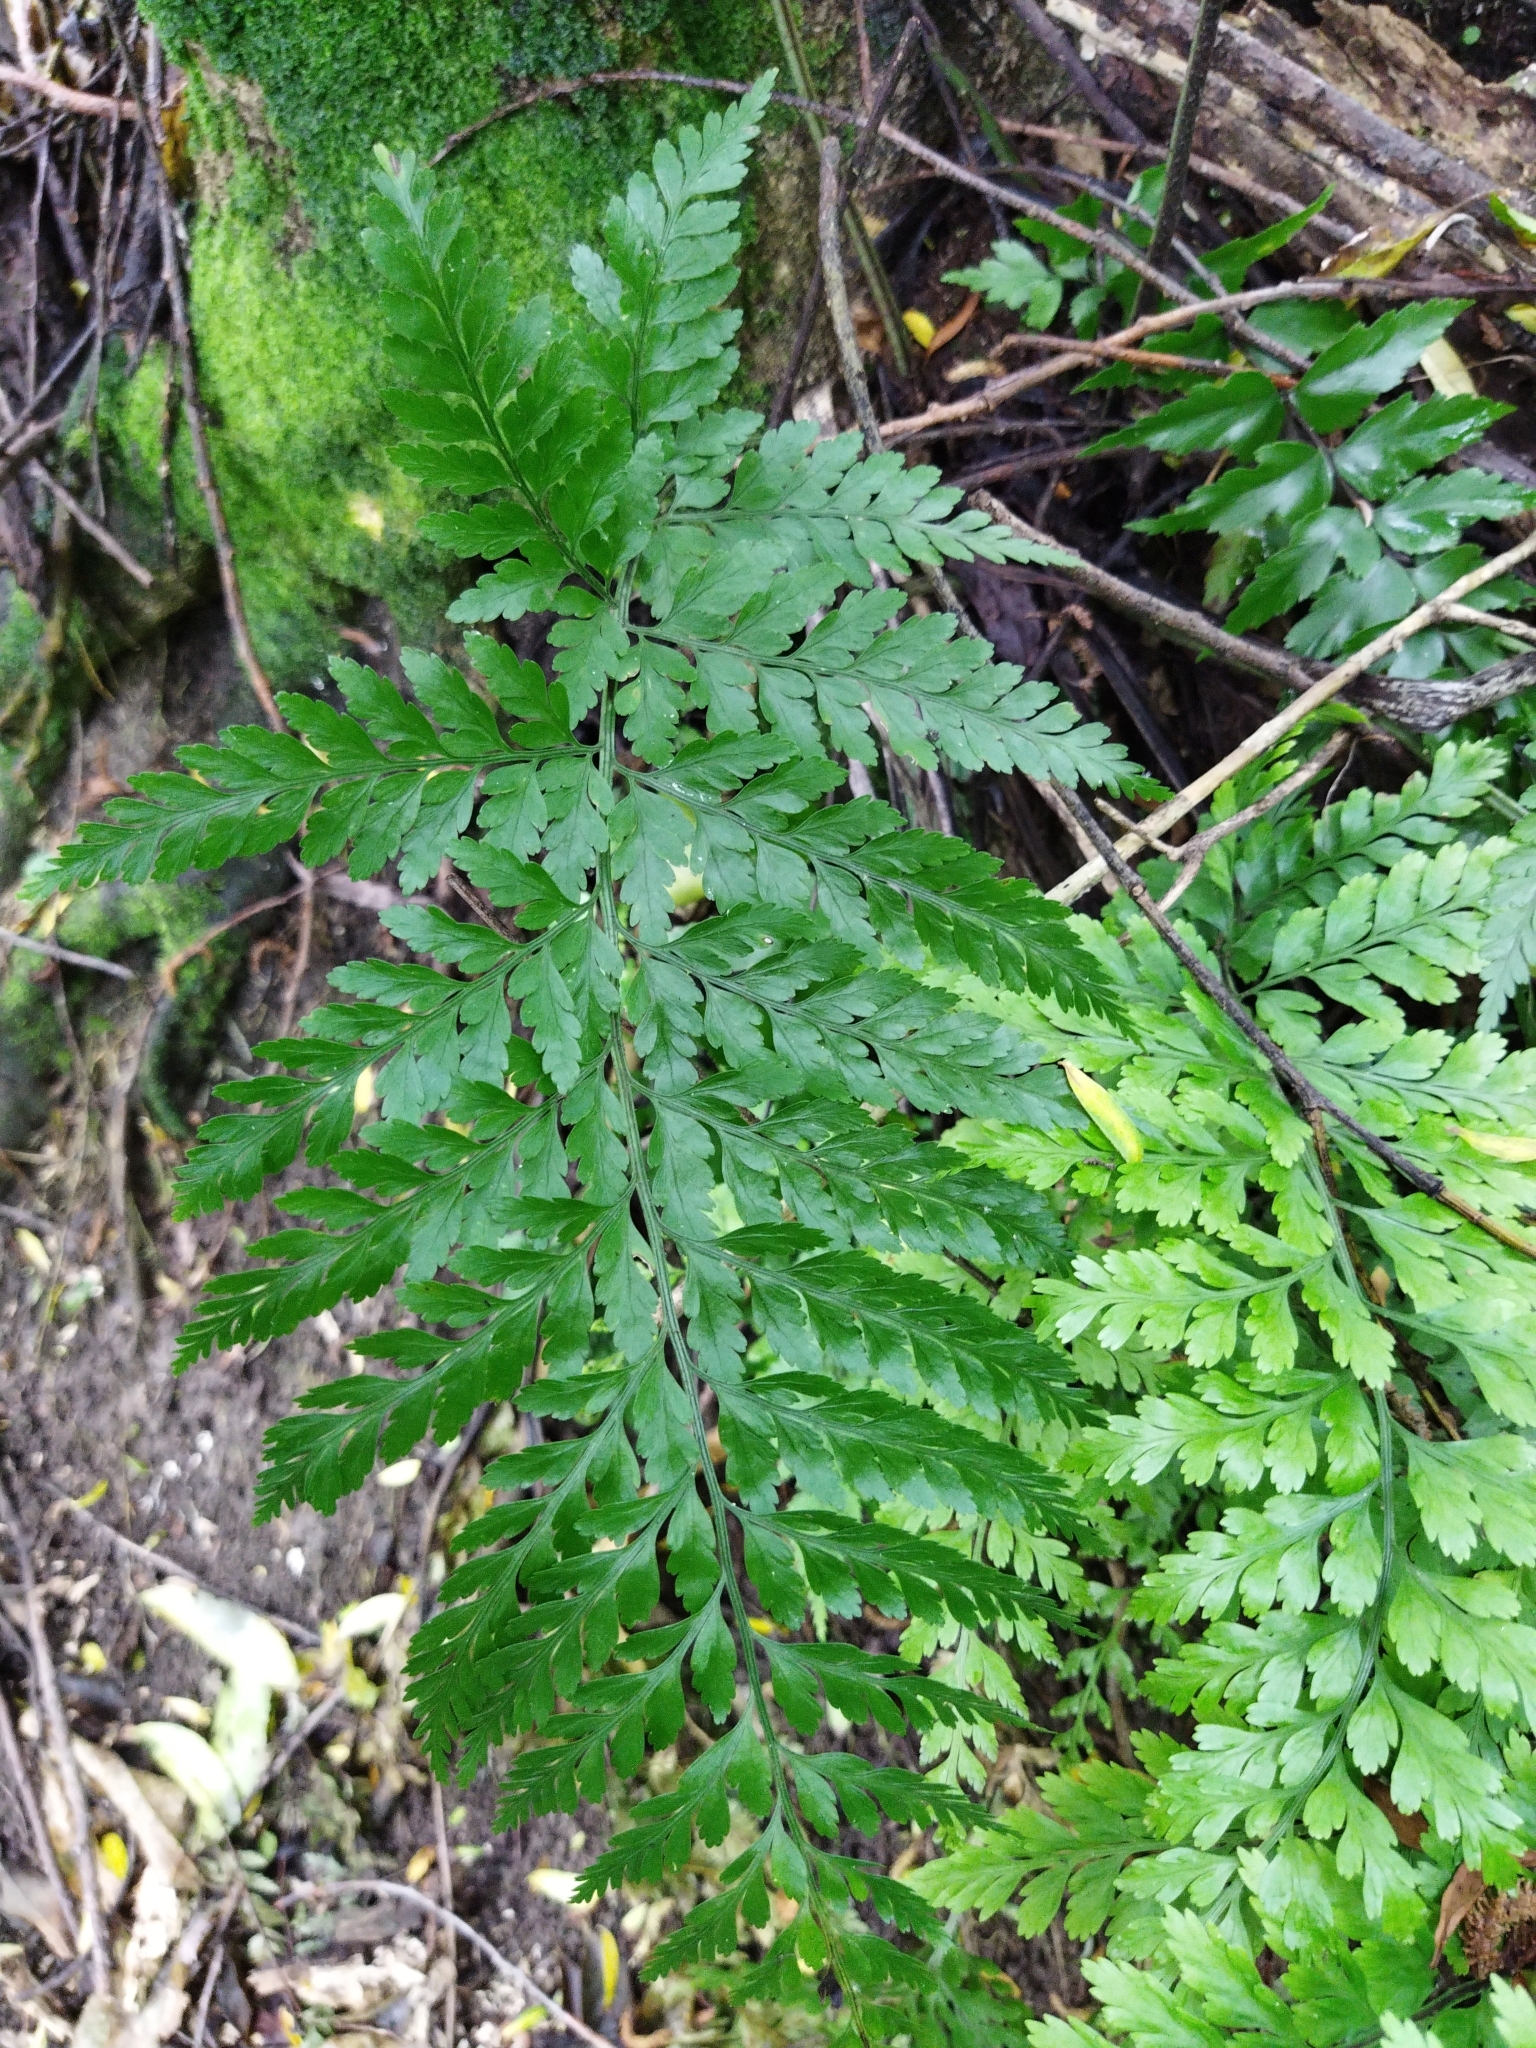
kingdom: Plantae
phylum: Tracheophyta
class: Polypodiopsida
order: Polypodiales
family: Aspleniaceae
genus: Asplenium
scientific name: Asplenium
